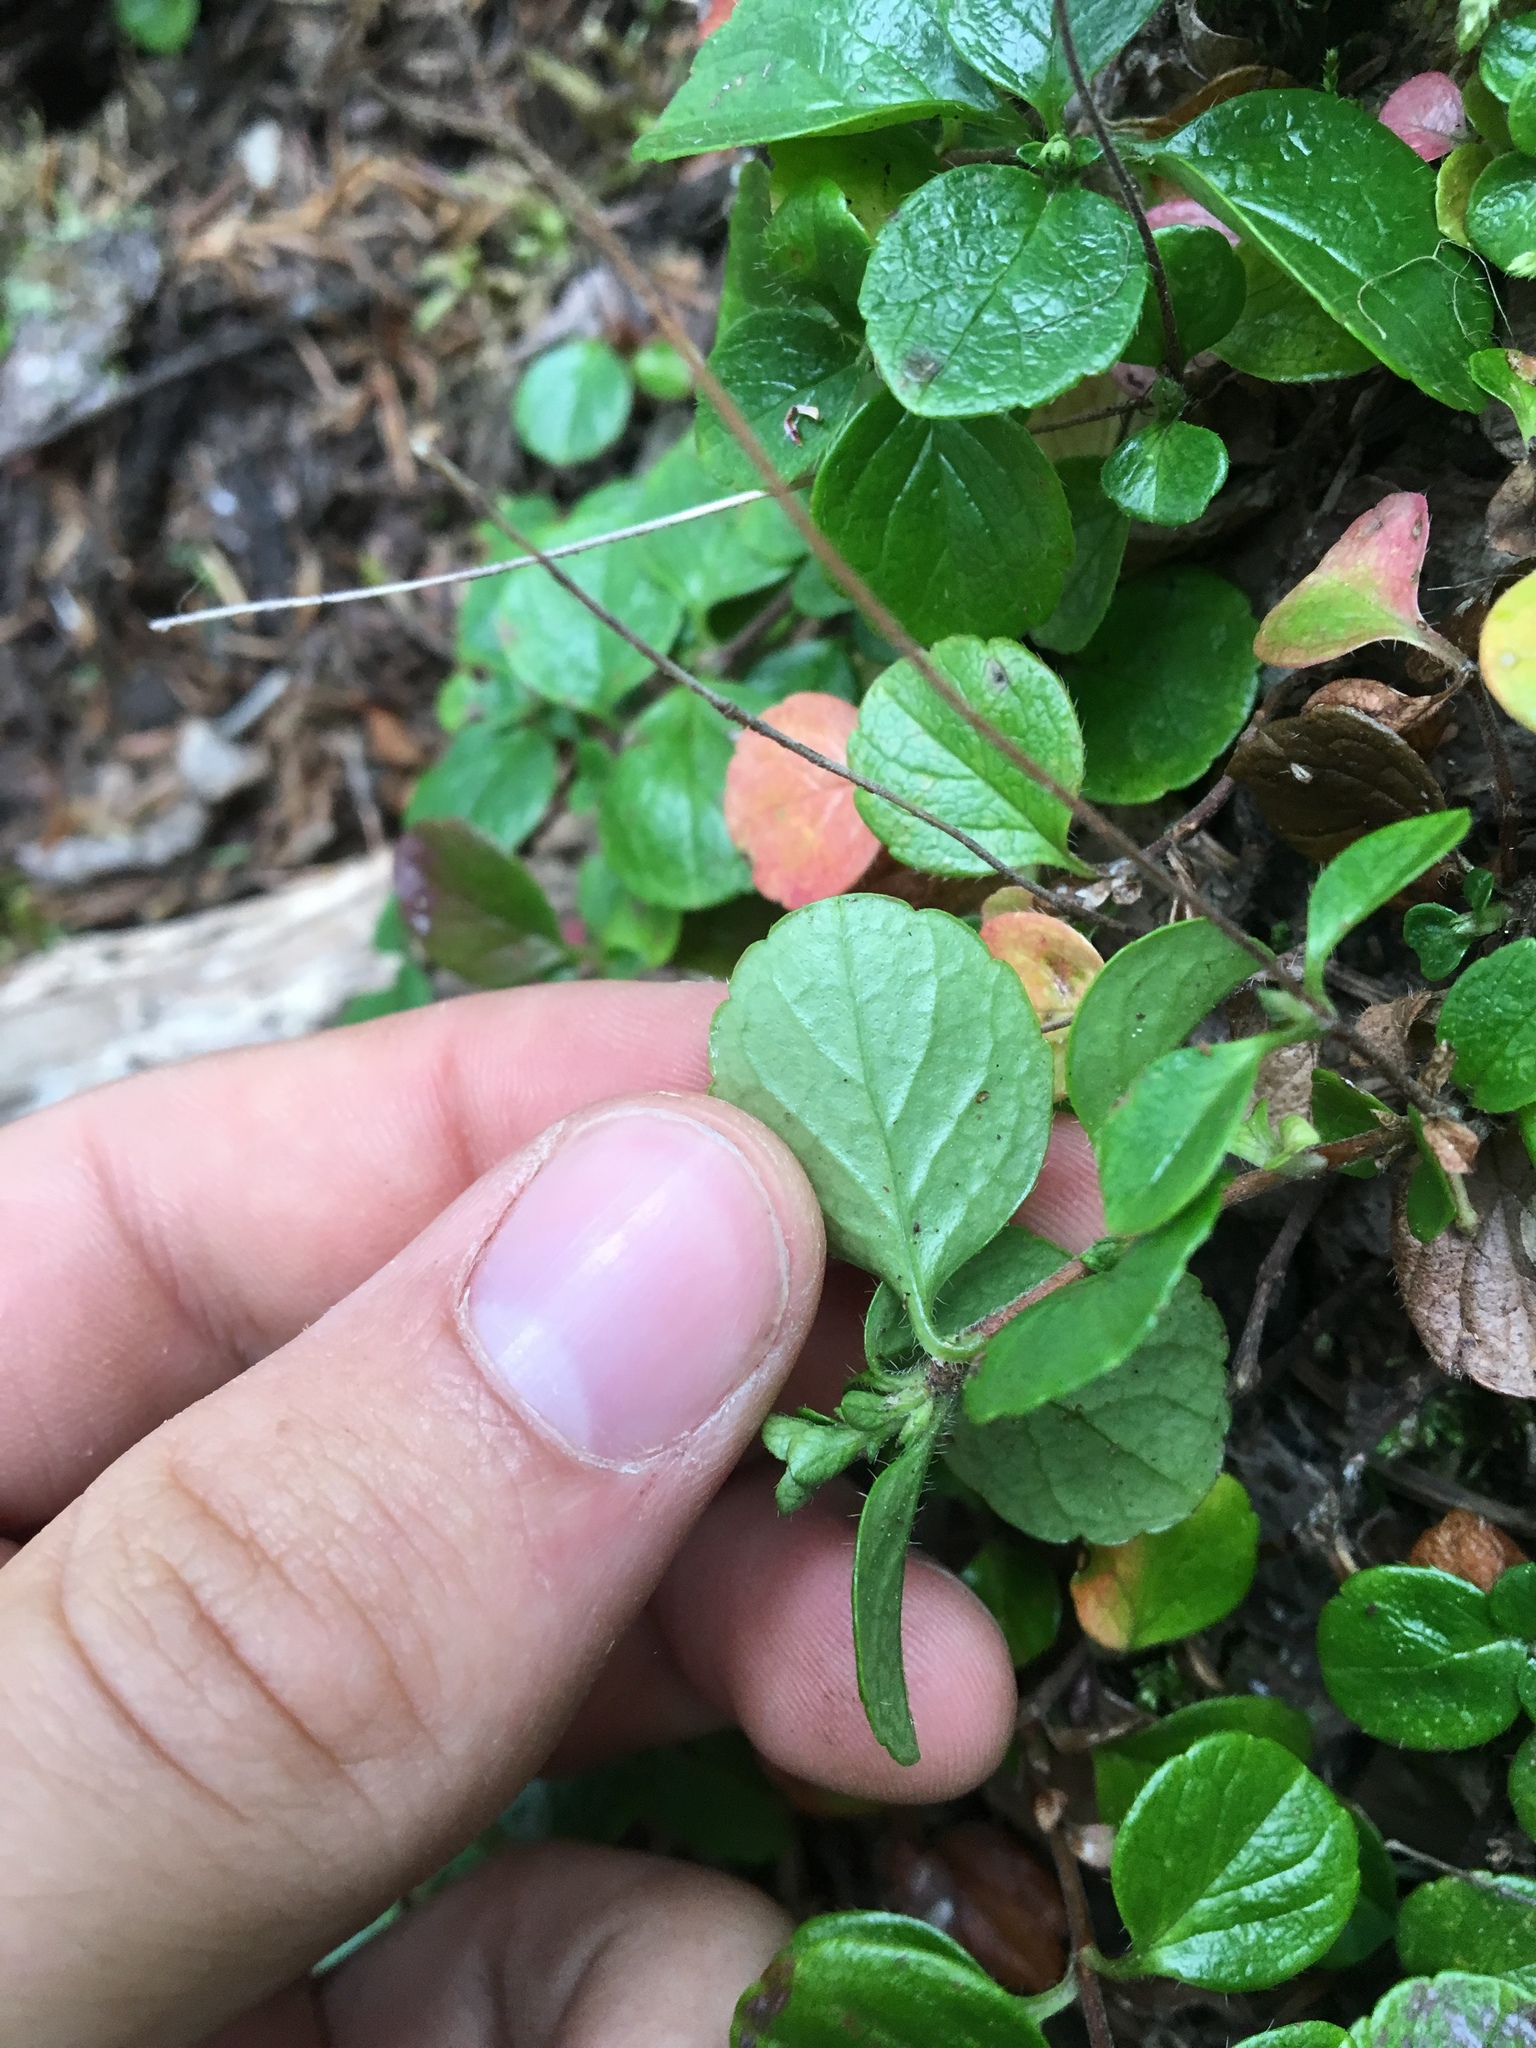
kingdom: Plantae
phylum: Tracheophyta
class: Magnoliopsida
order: Dipsacales
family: Caprifoliaceae
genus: Linnaea
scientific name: Linnaea borealis
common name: Twinflower
